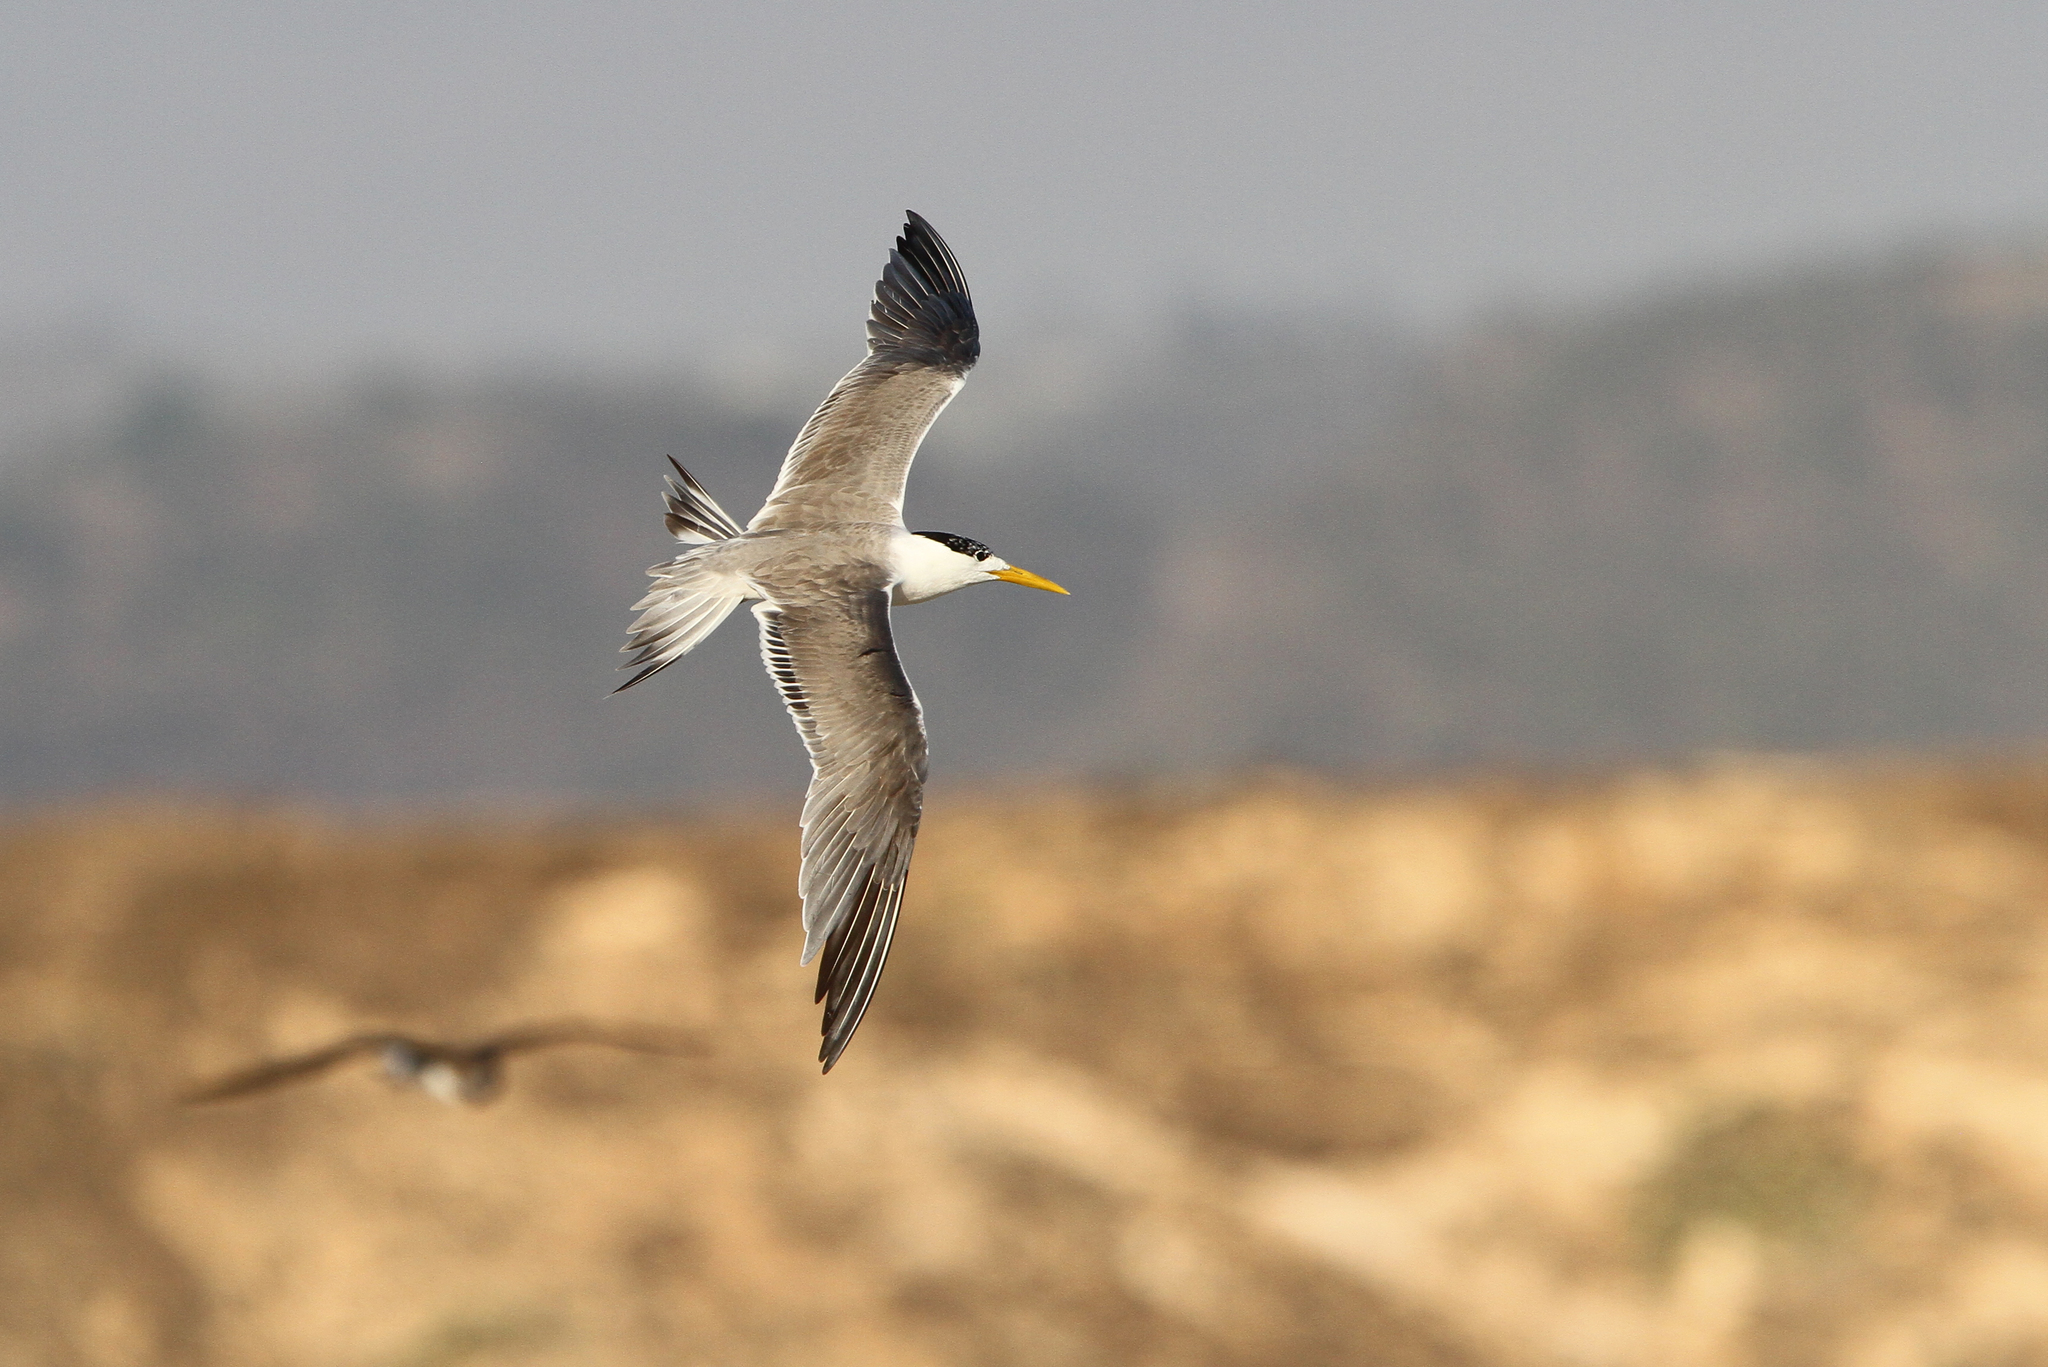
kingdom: Animalia
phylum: Chordata
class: Aves
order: Charadriiformes
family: Laridae
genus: Thalasseus
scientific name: Thalasseus bergii
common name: Greater crested tern
